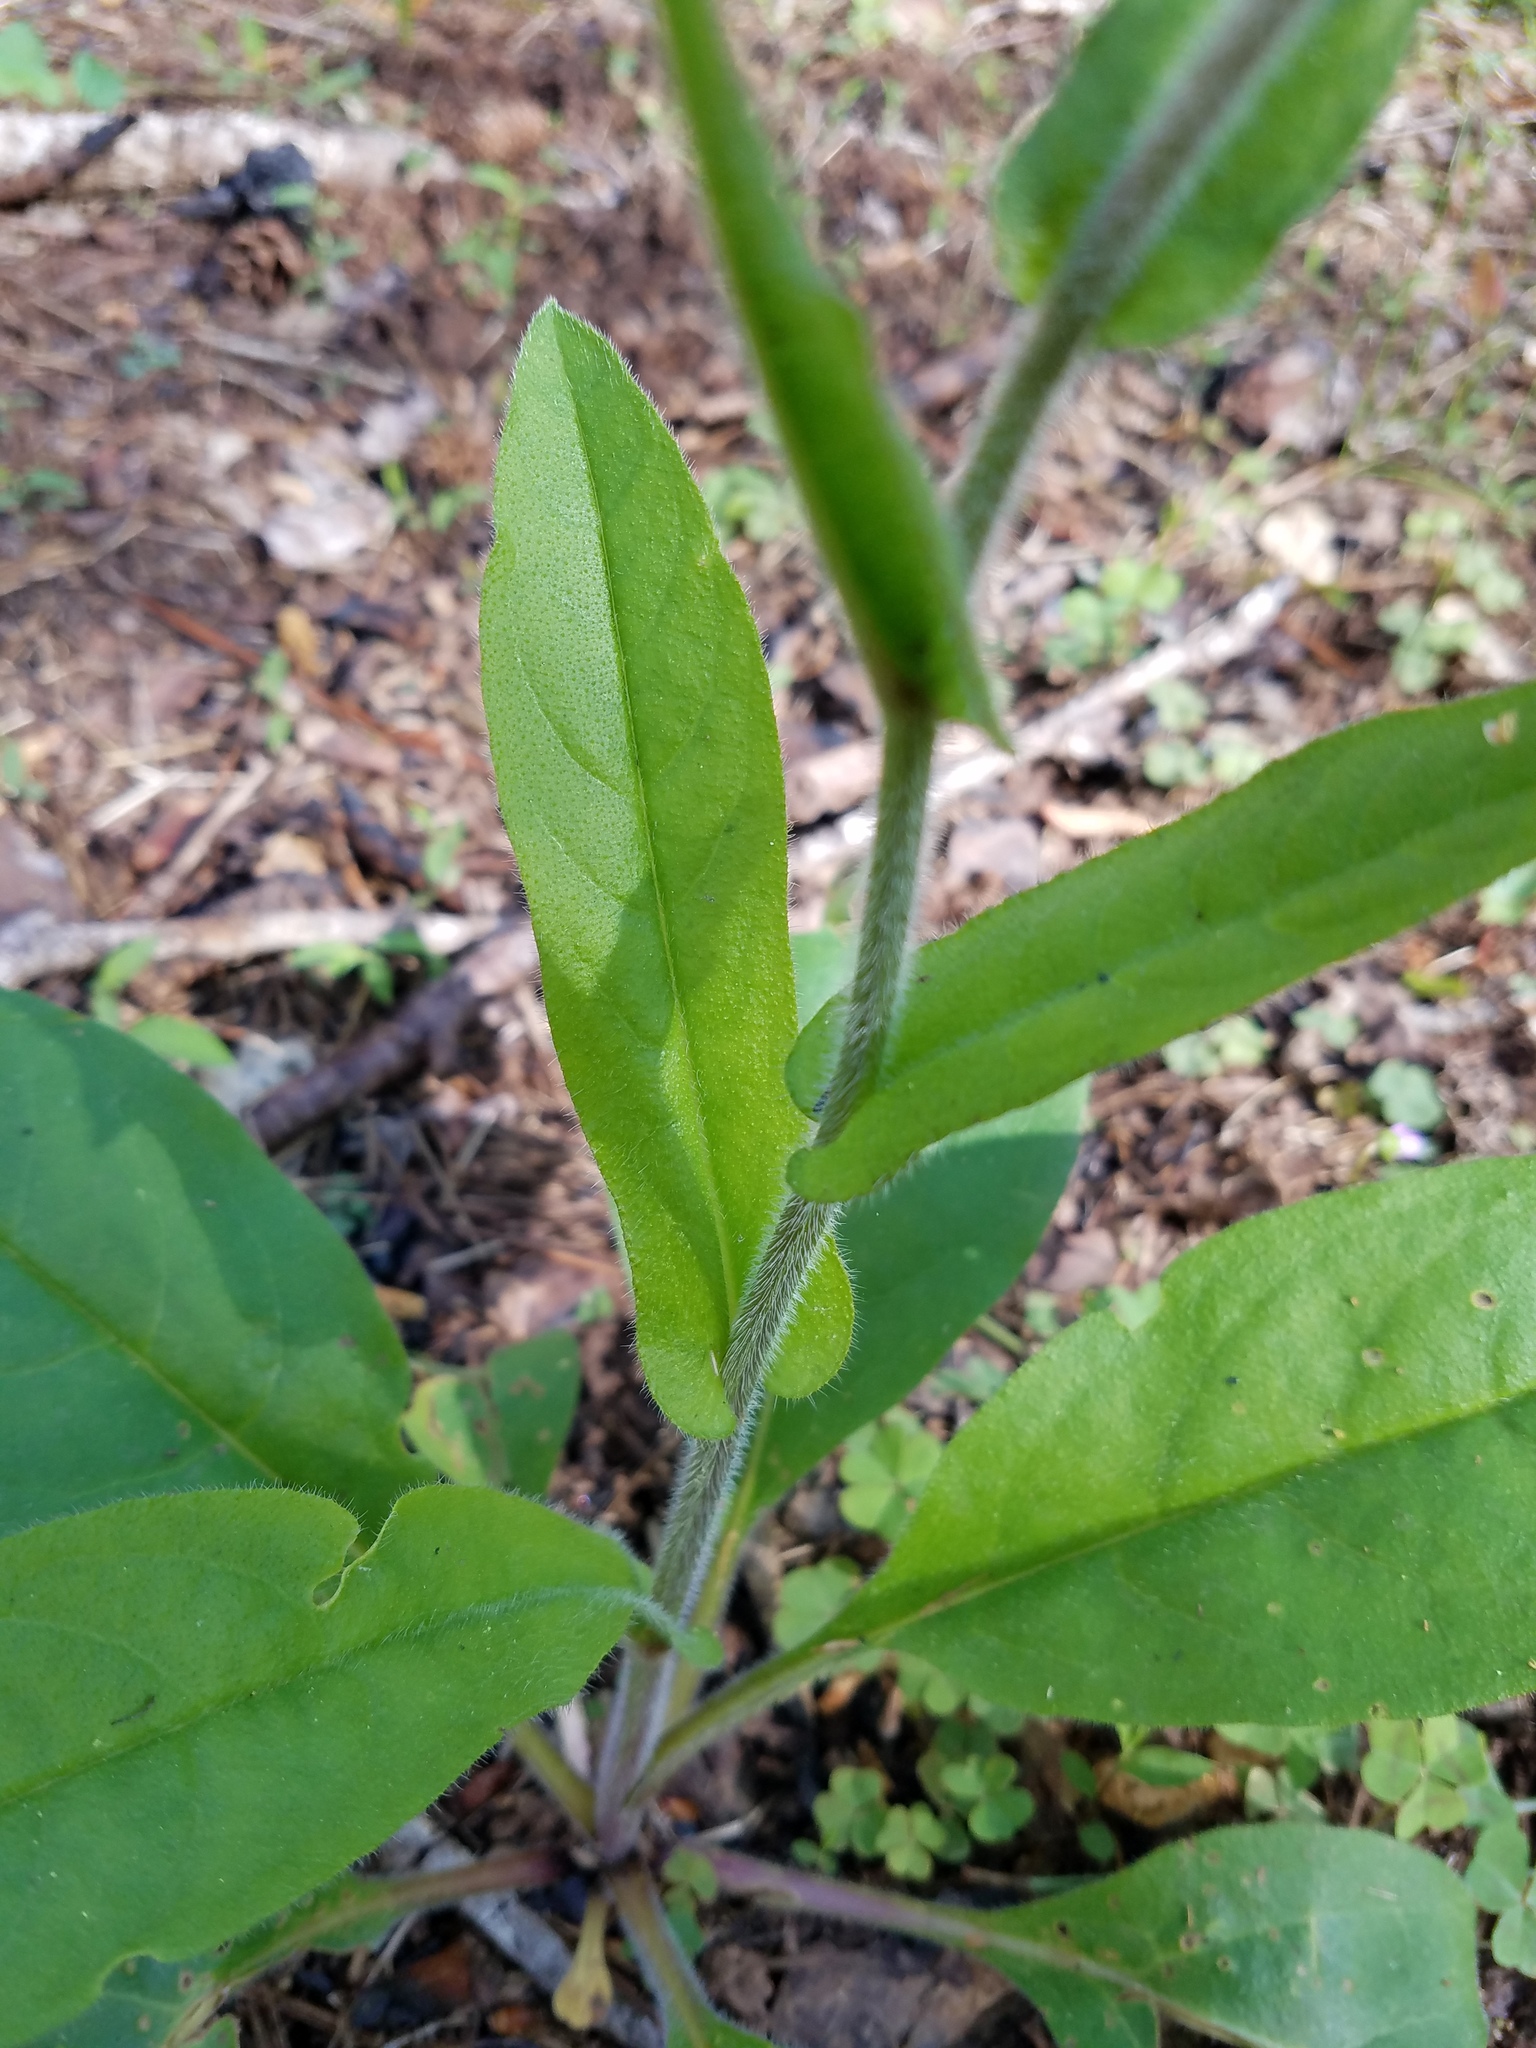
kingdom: Plantae
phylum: Tracheophyta
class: Magnoliopsida
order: Boraginales
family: Boraginaceae
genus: Andersonglossum
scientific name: Andersonglossum virginianum
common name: Wild comfrey
